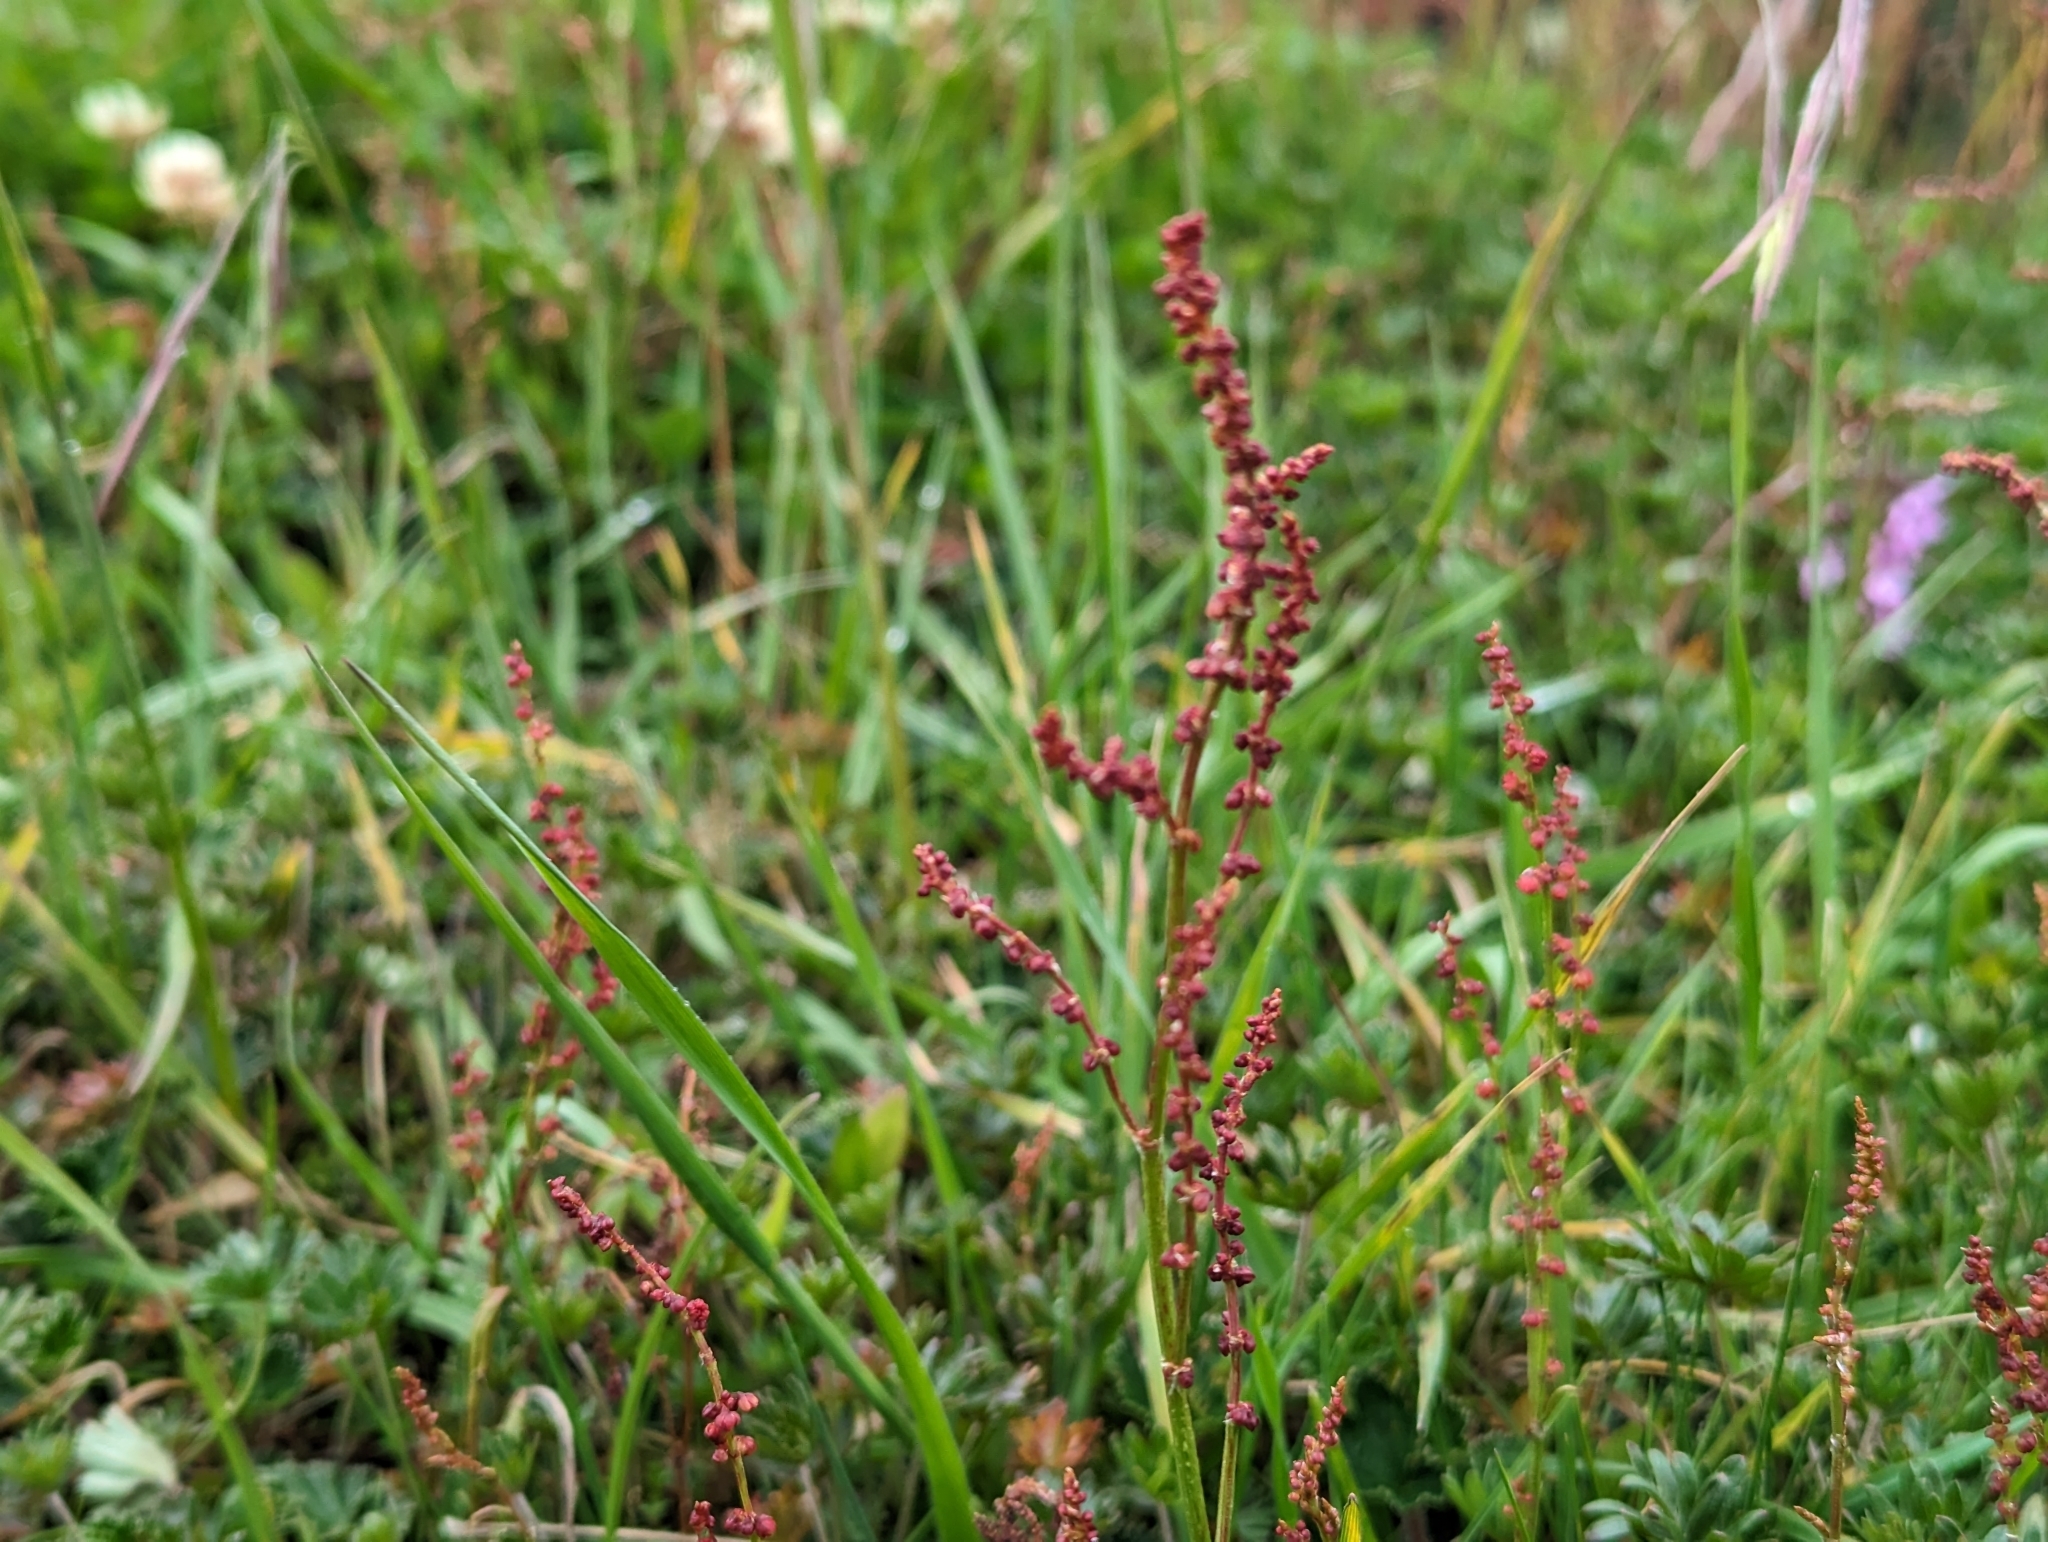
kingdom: Plantae
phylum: Tracheophyta
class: Magnoliopsida
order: Caryophyllales
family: Polygonaceae
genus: Rumex
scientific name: Rumex acetosella
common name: Common sheep sorrel
